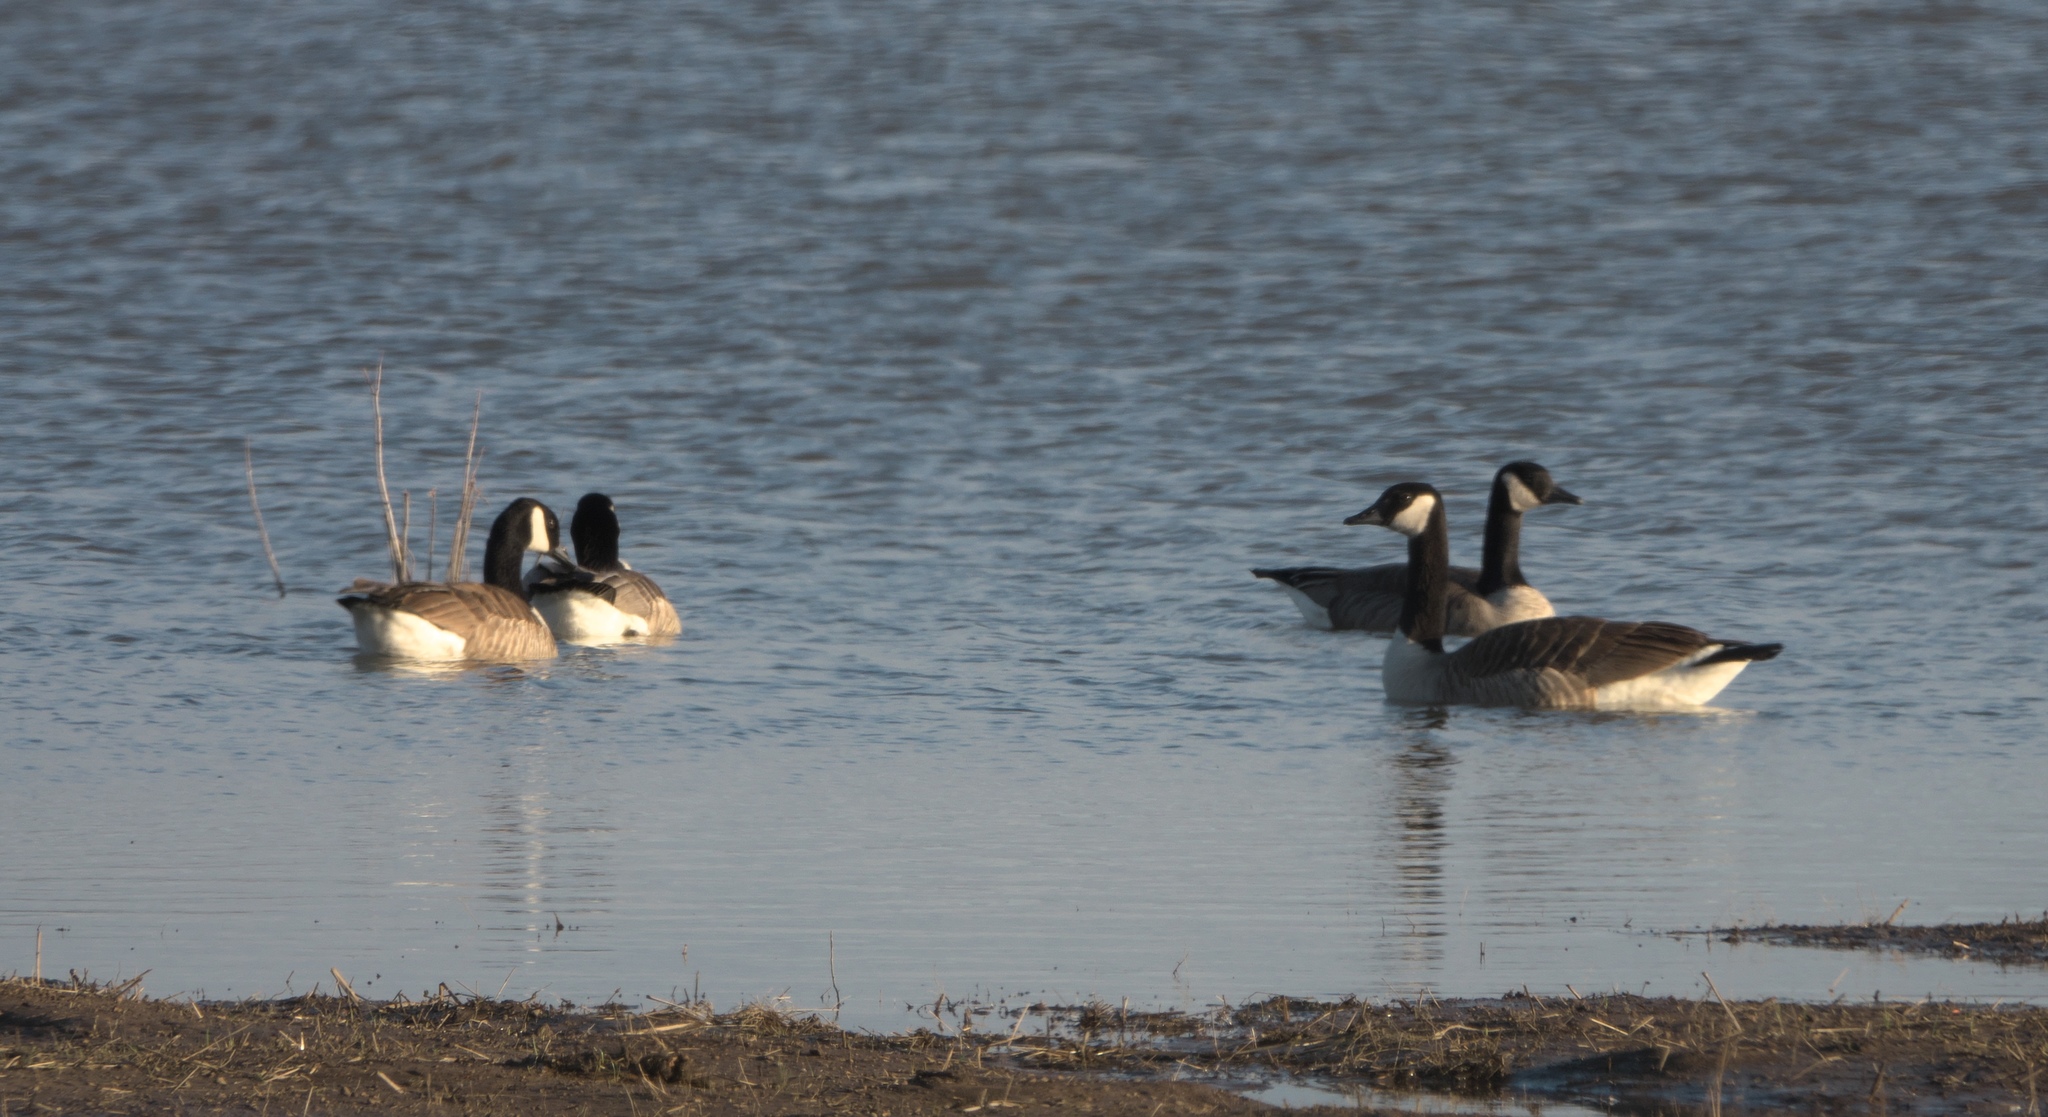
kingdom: Animalia
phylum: Chordata
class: Aves
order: Anseriformes
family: Anatidae
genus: Branta
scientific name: Branta canadensis
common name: Canada goose
